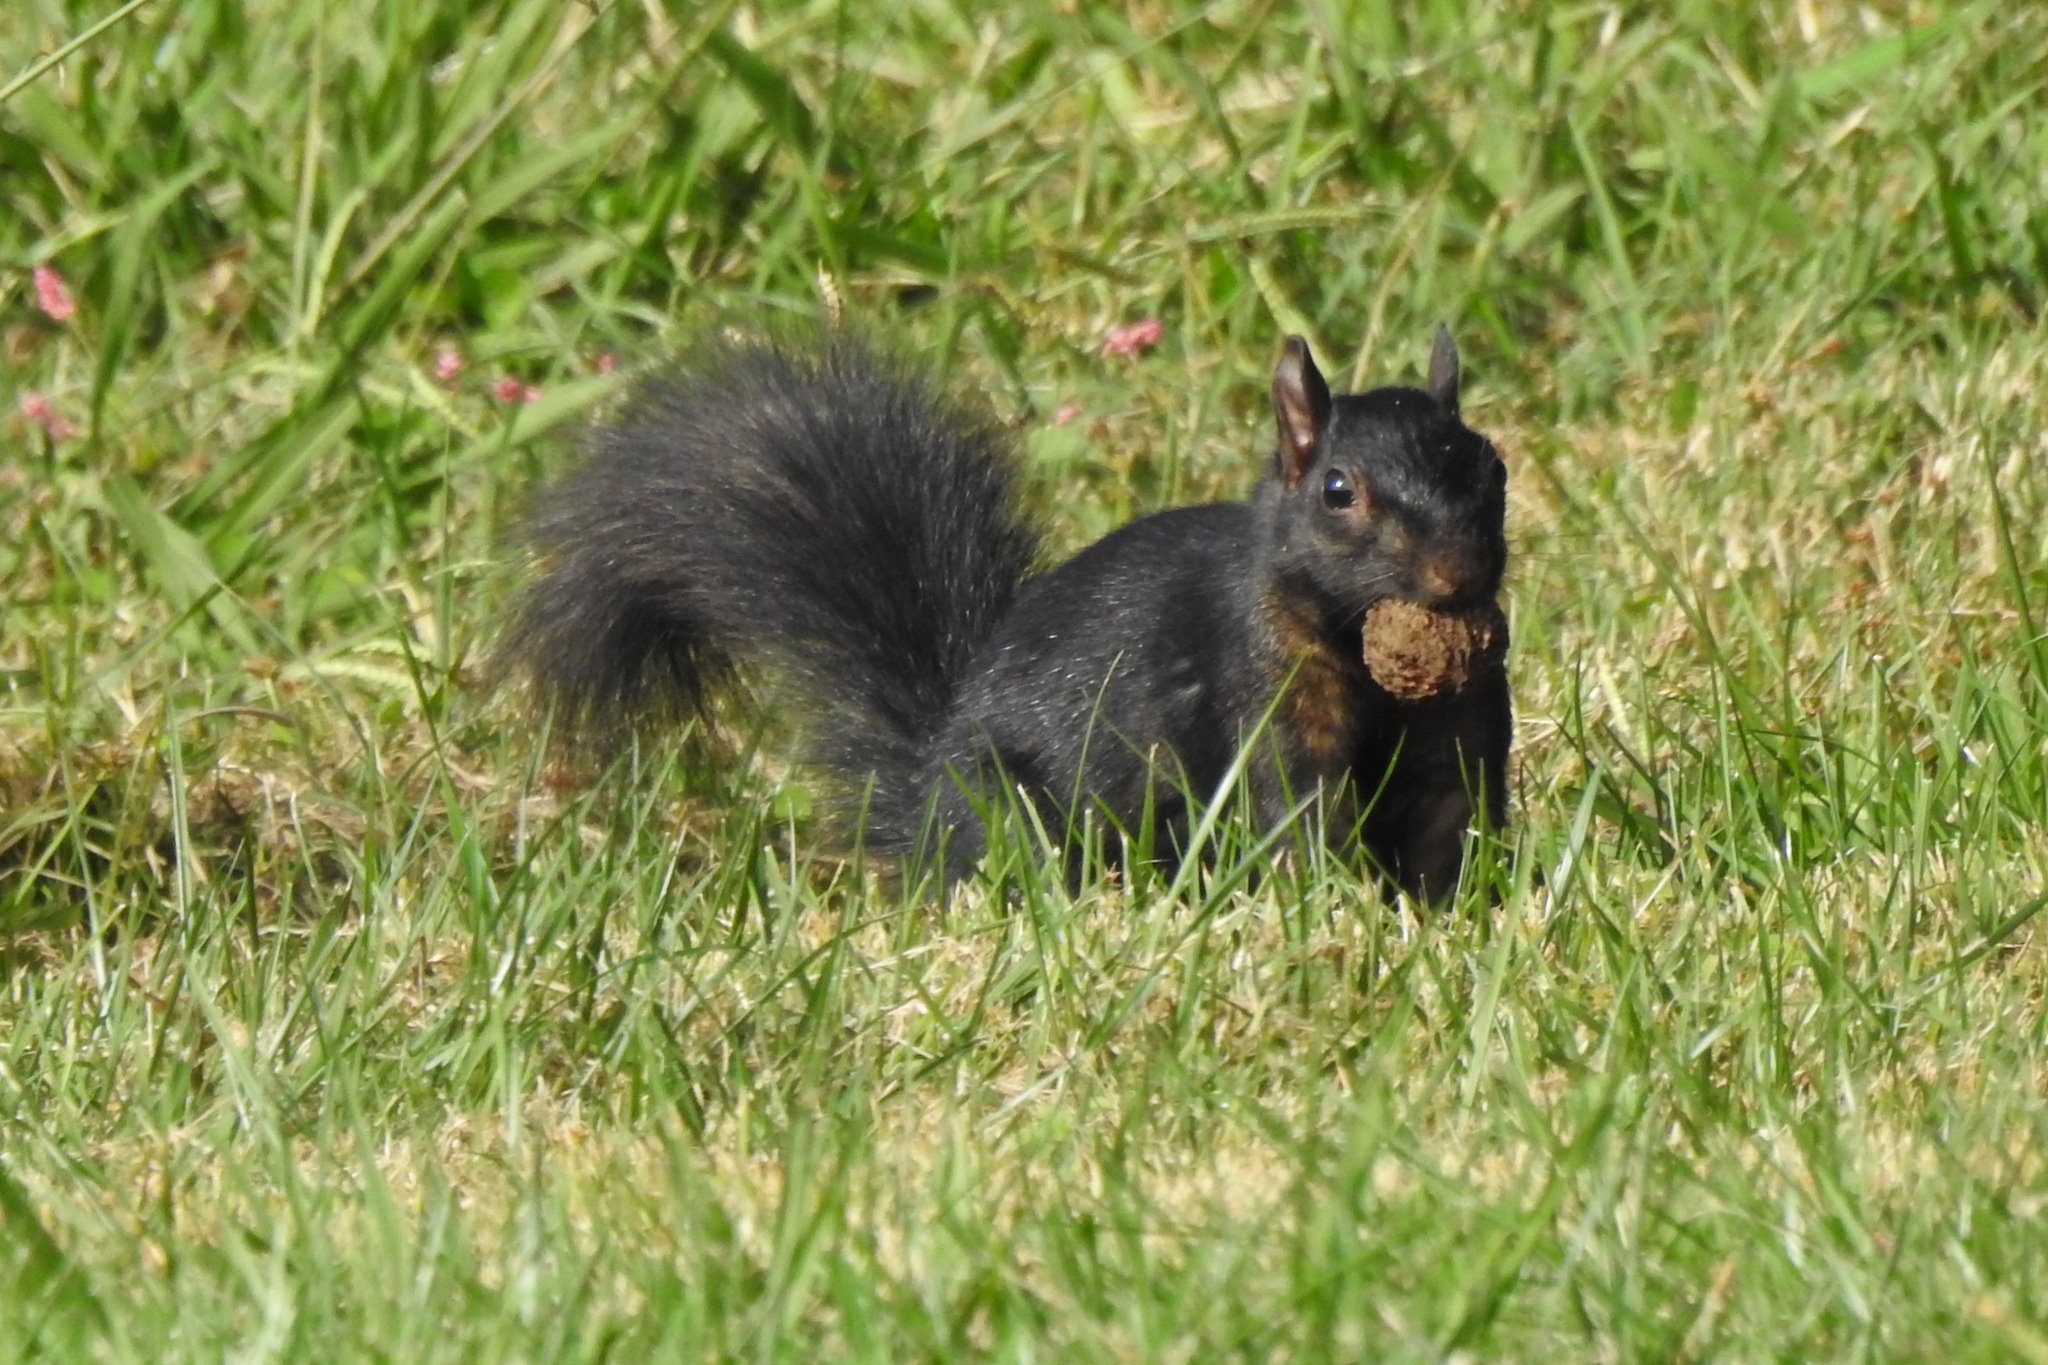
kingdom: Animalia
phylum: Chordata
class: Mammalia
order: Rodentia
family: Sciuridae
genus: Sciurus
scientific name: Sciurus carolinensis
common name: Eastern gray squirrel
